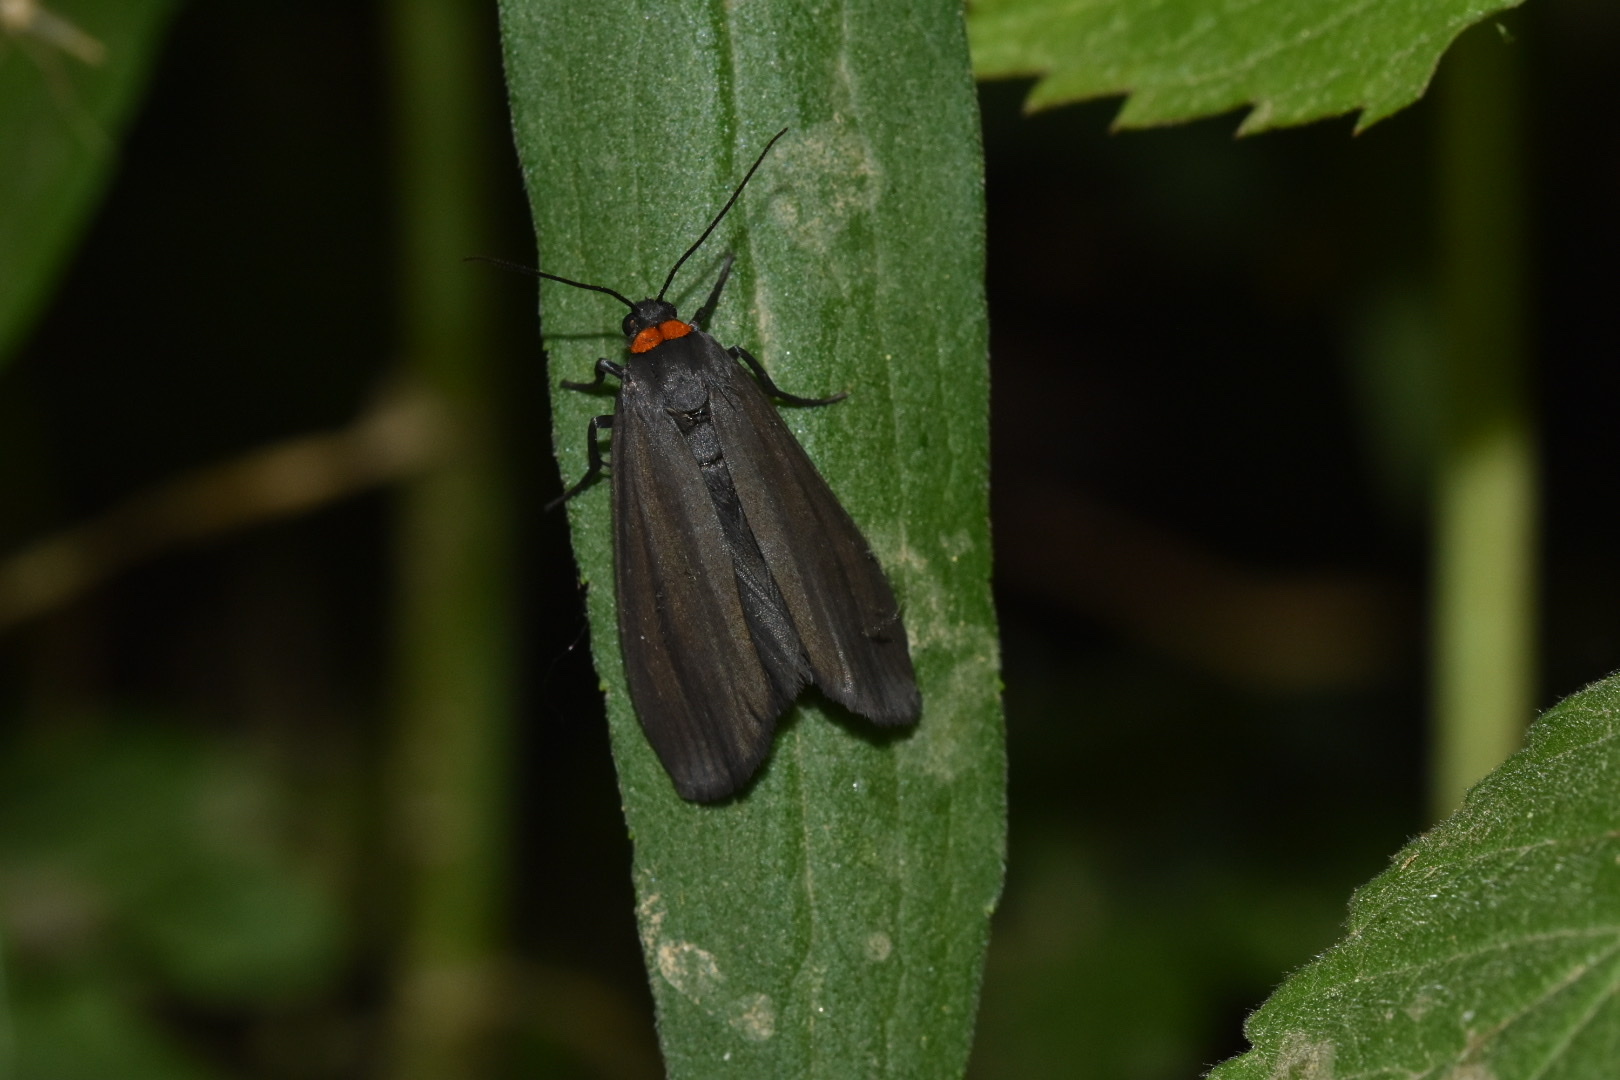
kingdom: Animalia
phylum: Arthropoda
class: Insecta
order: Lepidoptera
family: Erebidae
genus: Atolmis
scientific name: Atolmis rubricollis
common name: Red-necked footman
